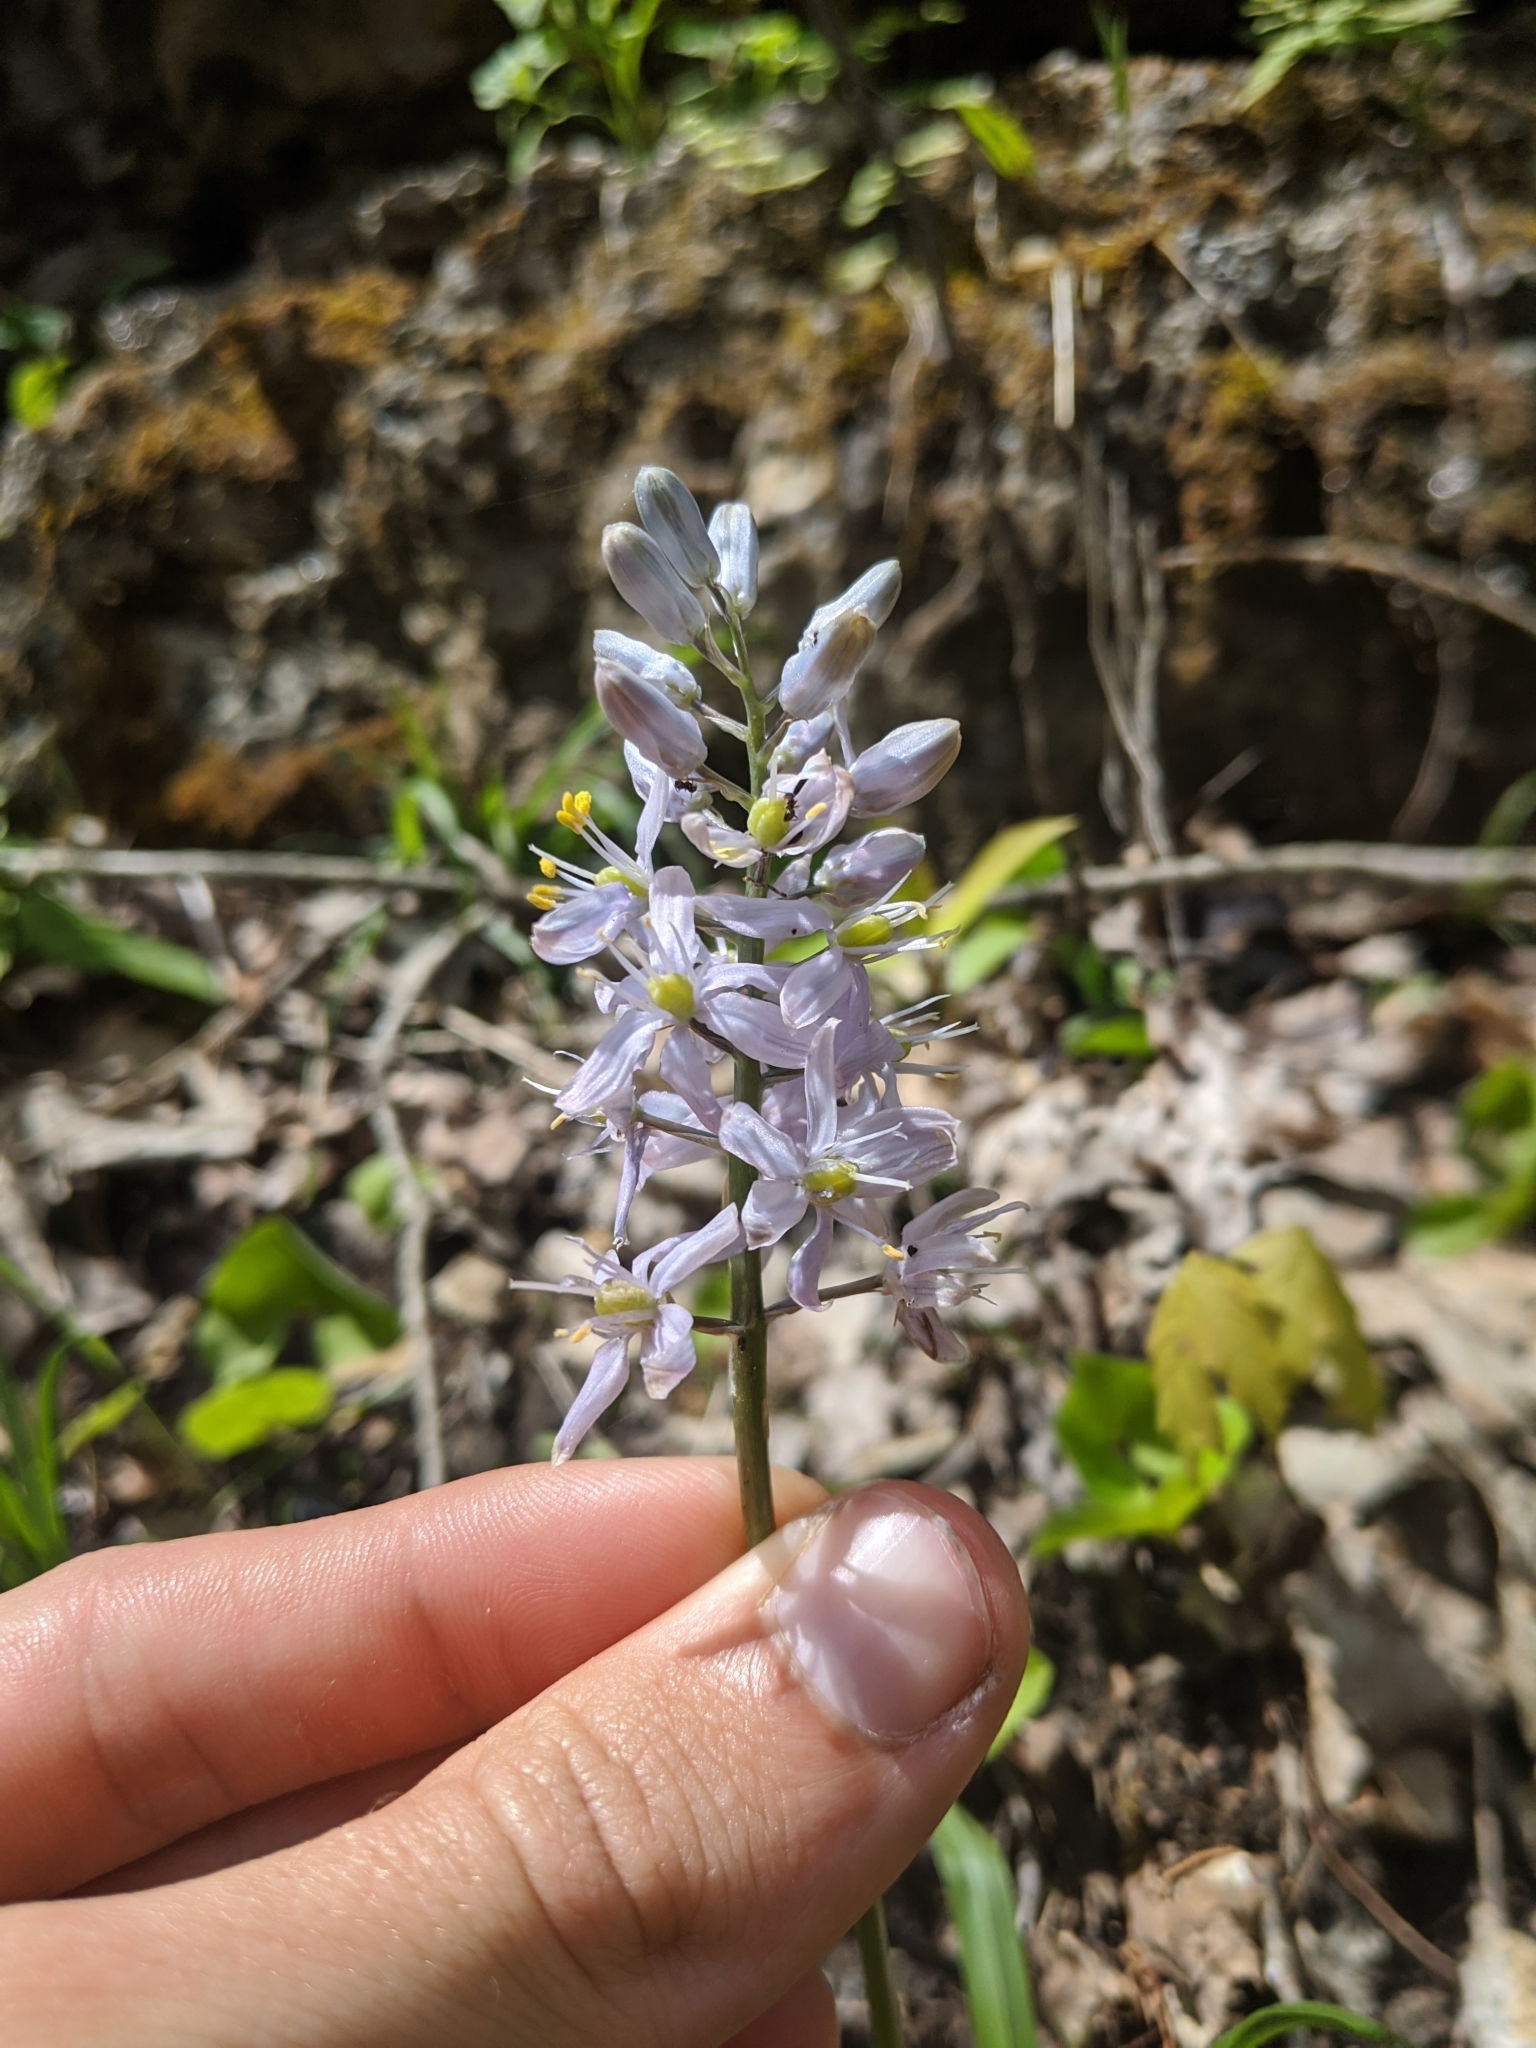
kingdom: Plantae
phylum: Tracheophyta
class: Liliopsida
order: Asparagales
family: Asparagaceae
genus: Camassia
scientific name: Camassia scilloides
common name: Wild hyacinth
